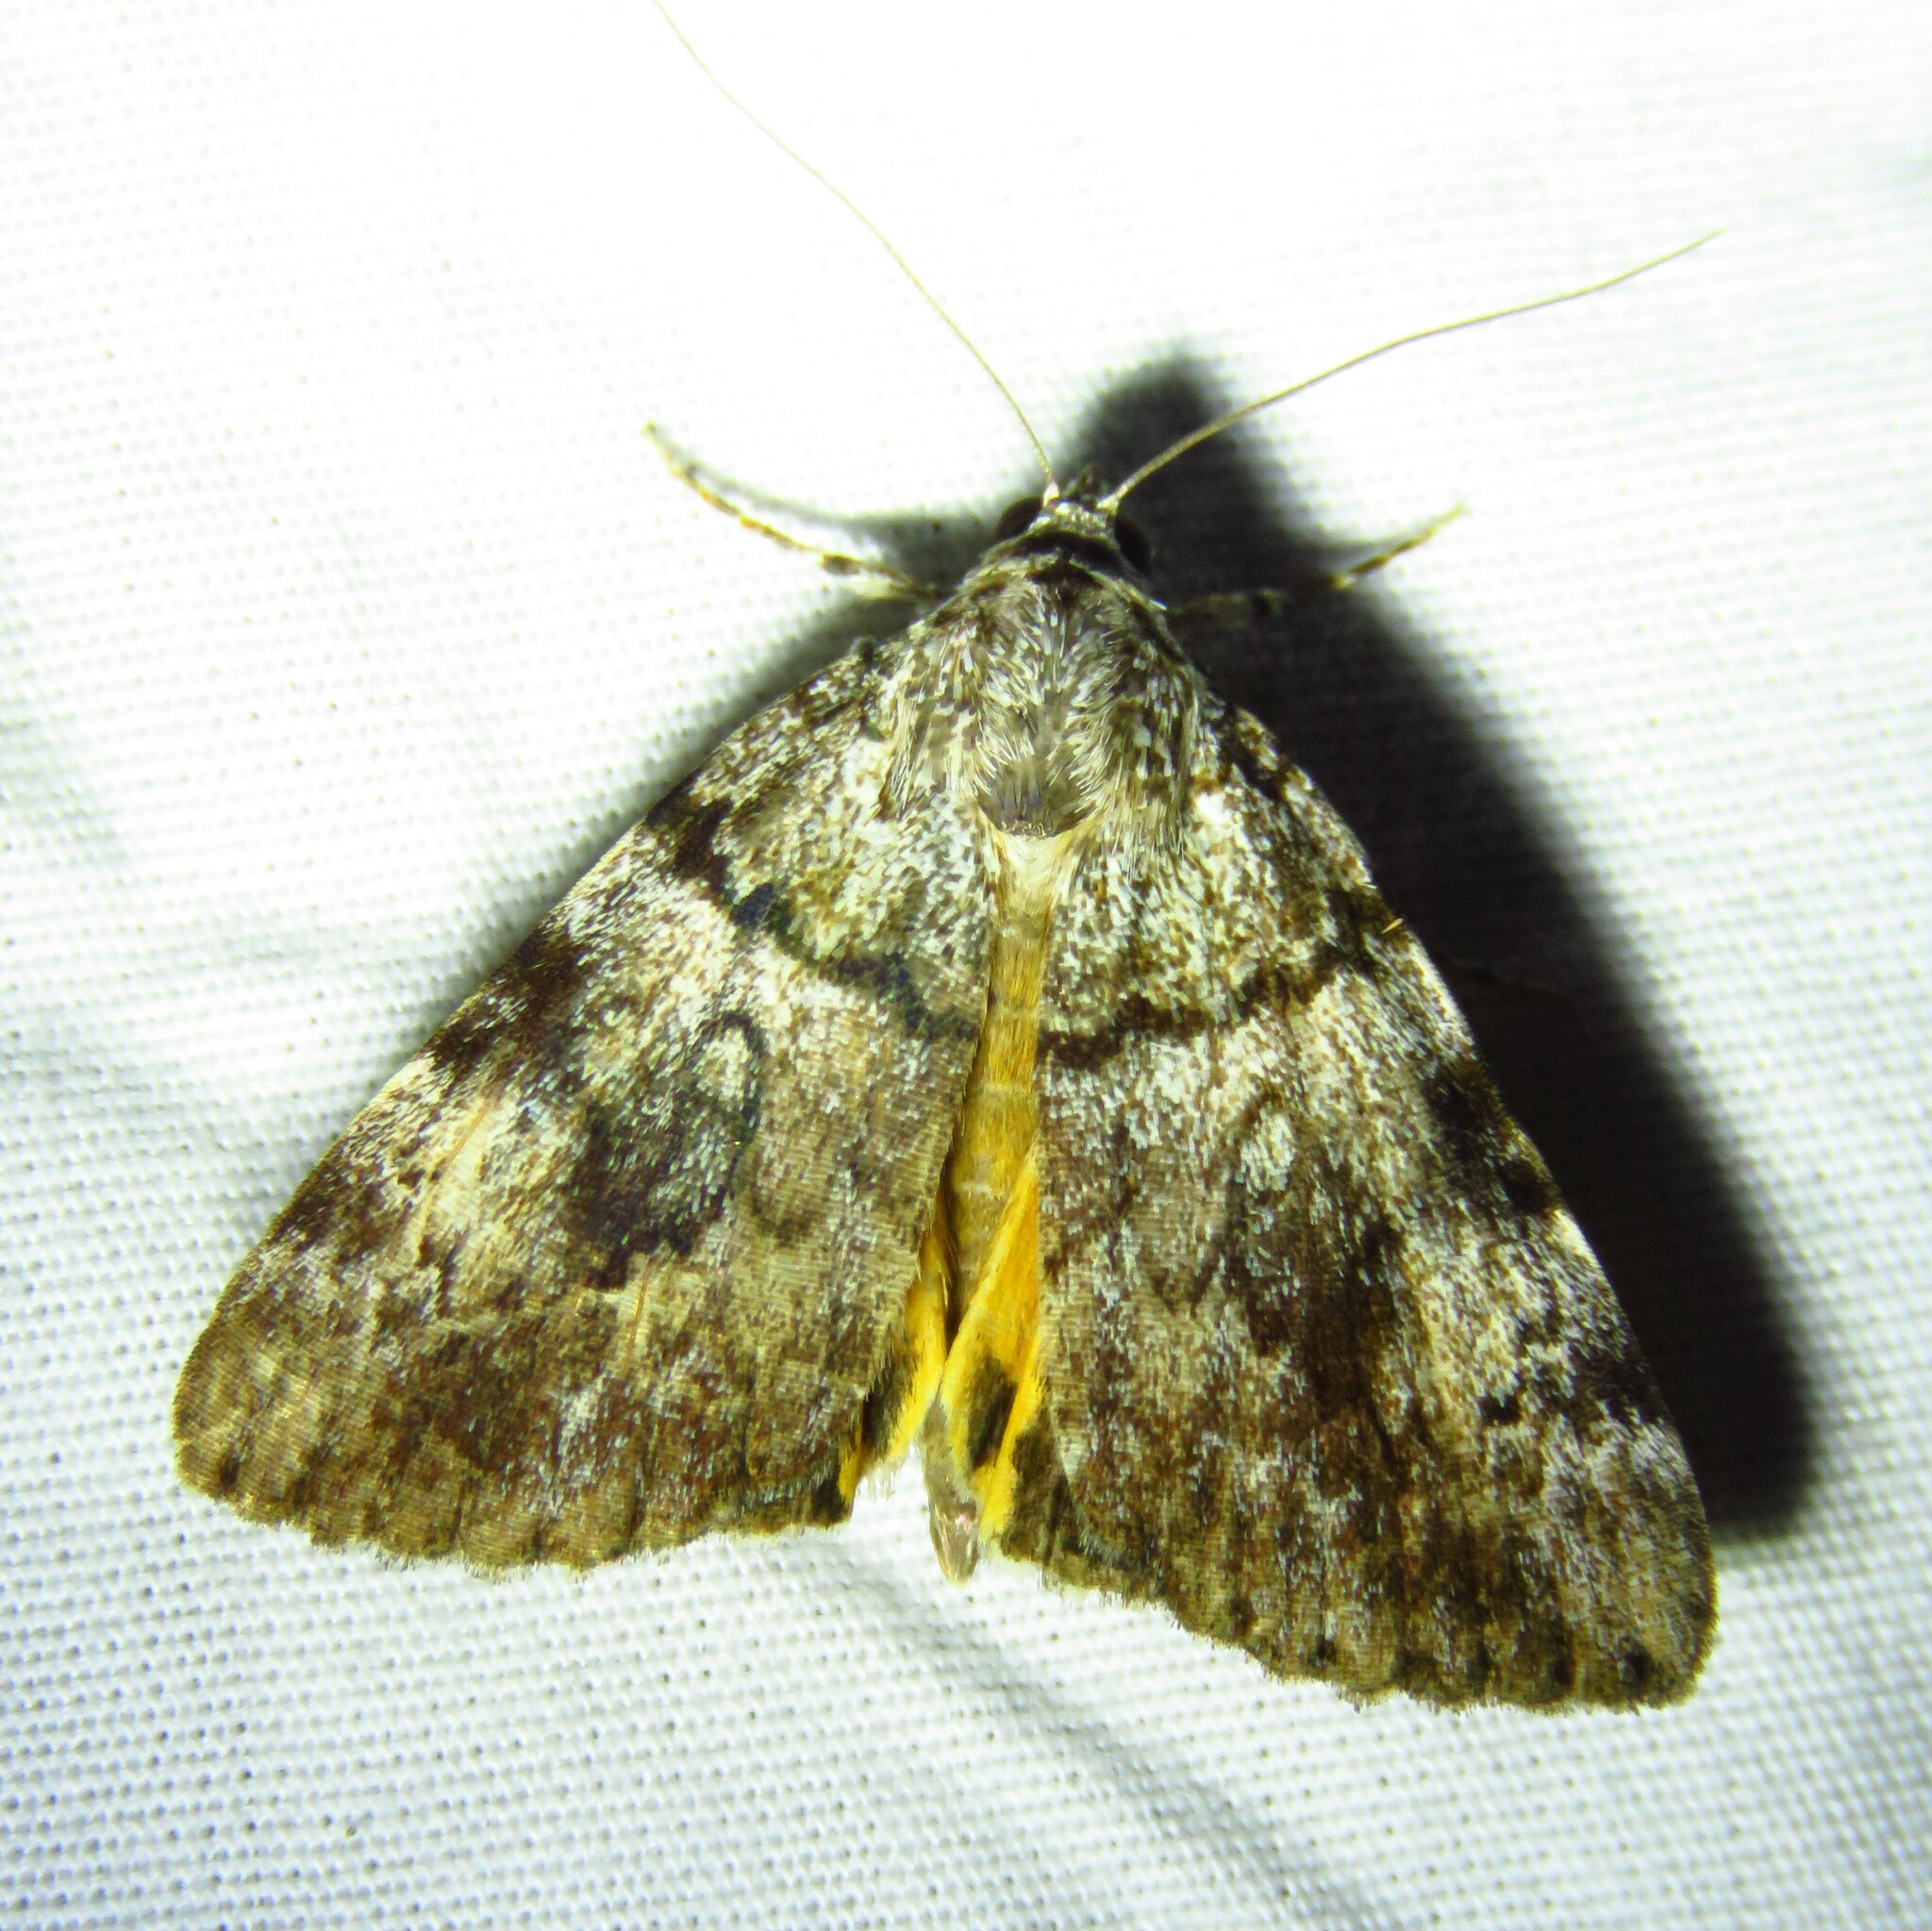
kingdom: Animalia
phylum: Arthropoda
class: Insecta
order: Lepidoptera
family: Erebidae
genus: Catocala
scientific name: Catocala lineella
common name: Little lined underwing
